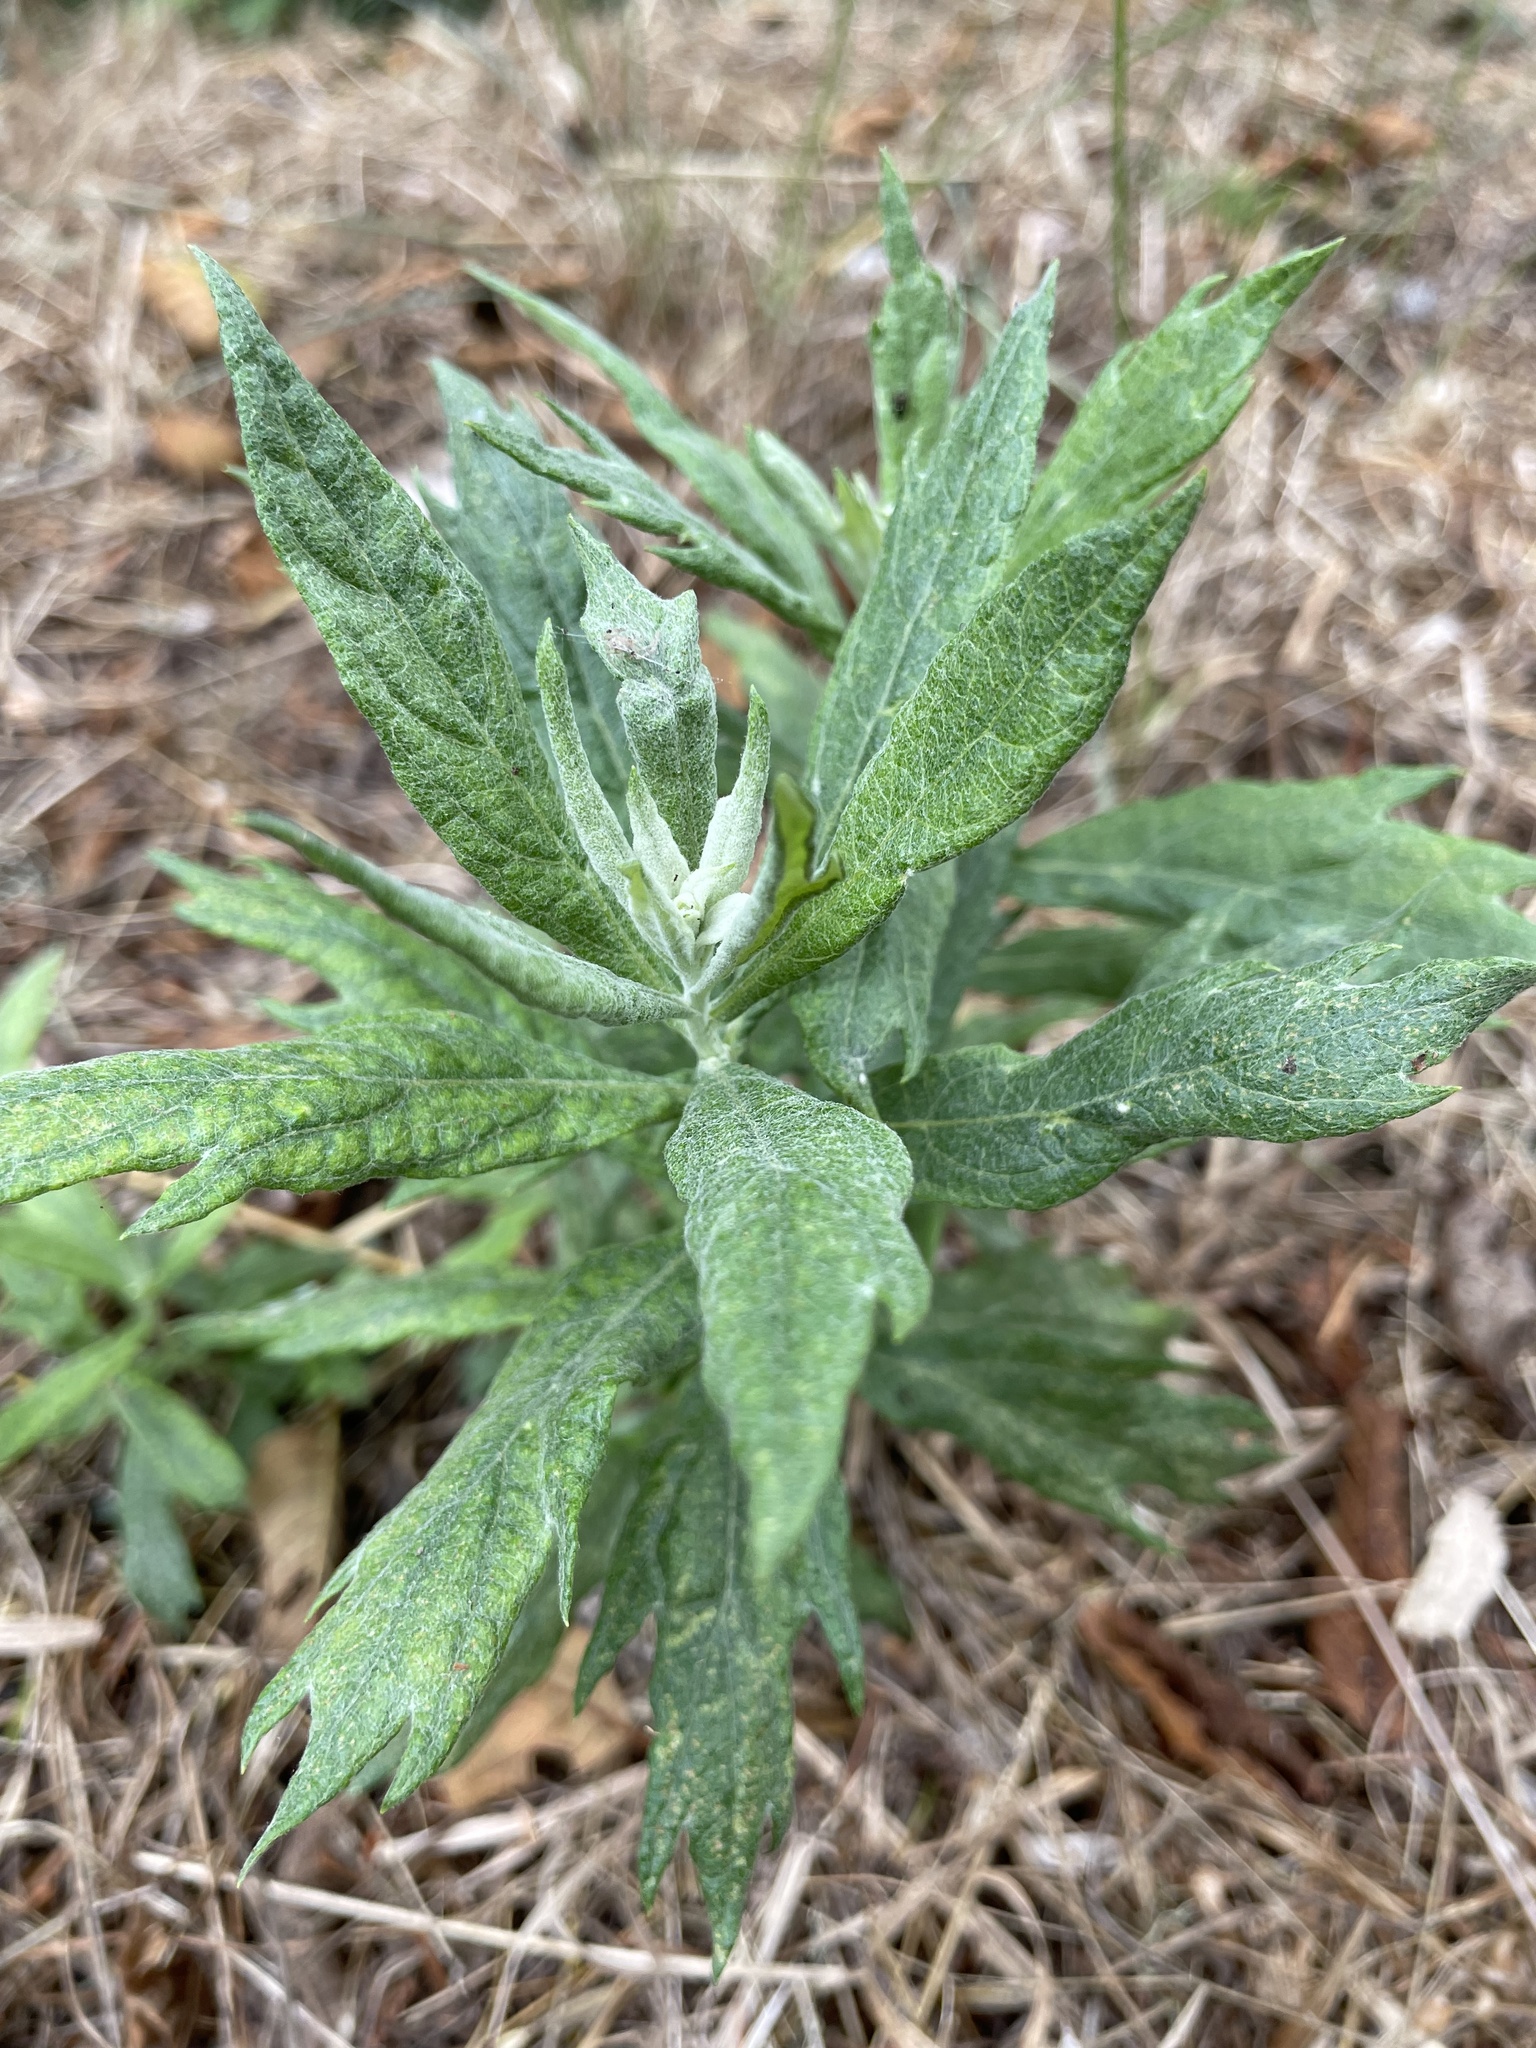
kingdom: Plantae
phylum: Tracheophyta
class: Magnoliopsida
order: Asterales
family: Asteraceae
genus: Artemisia
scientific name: Artemisia douglasiana
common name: Northwest mugwort
